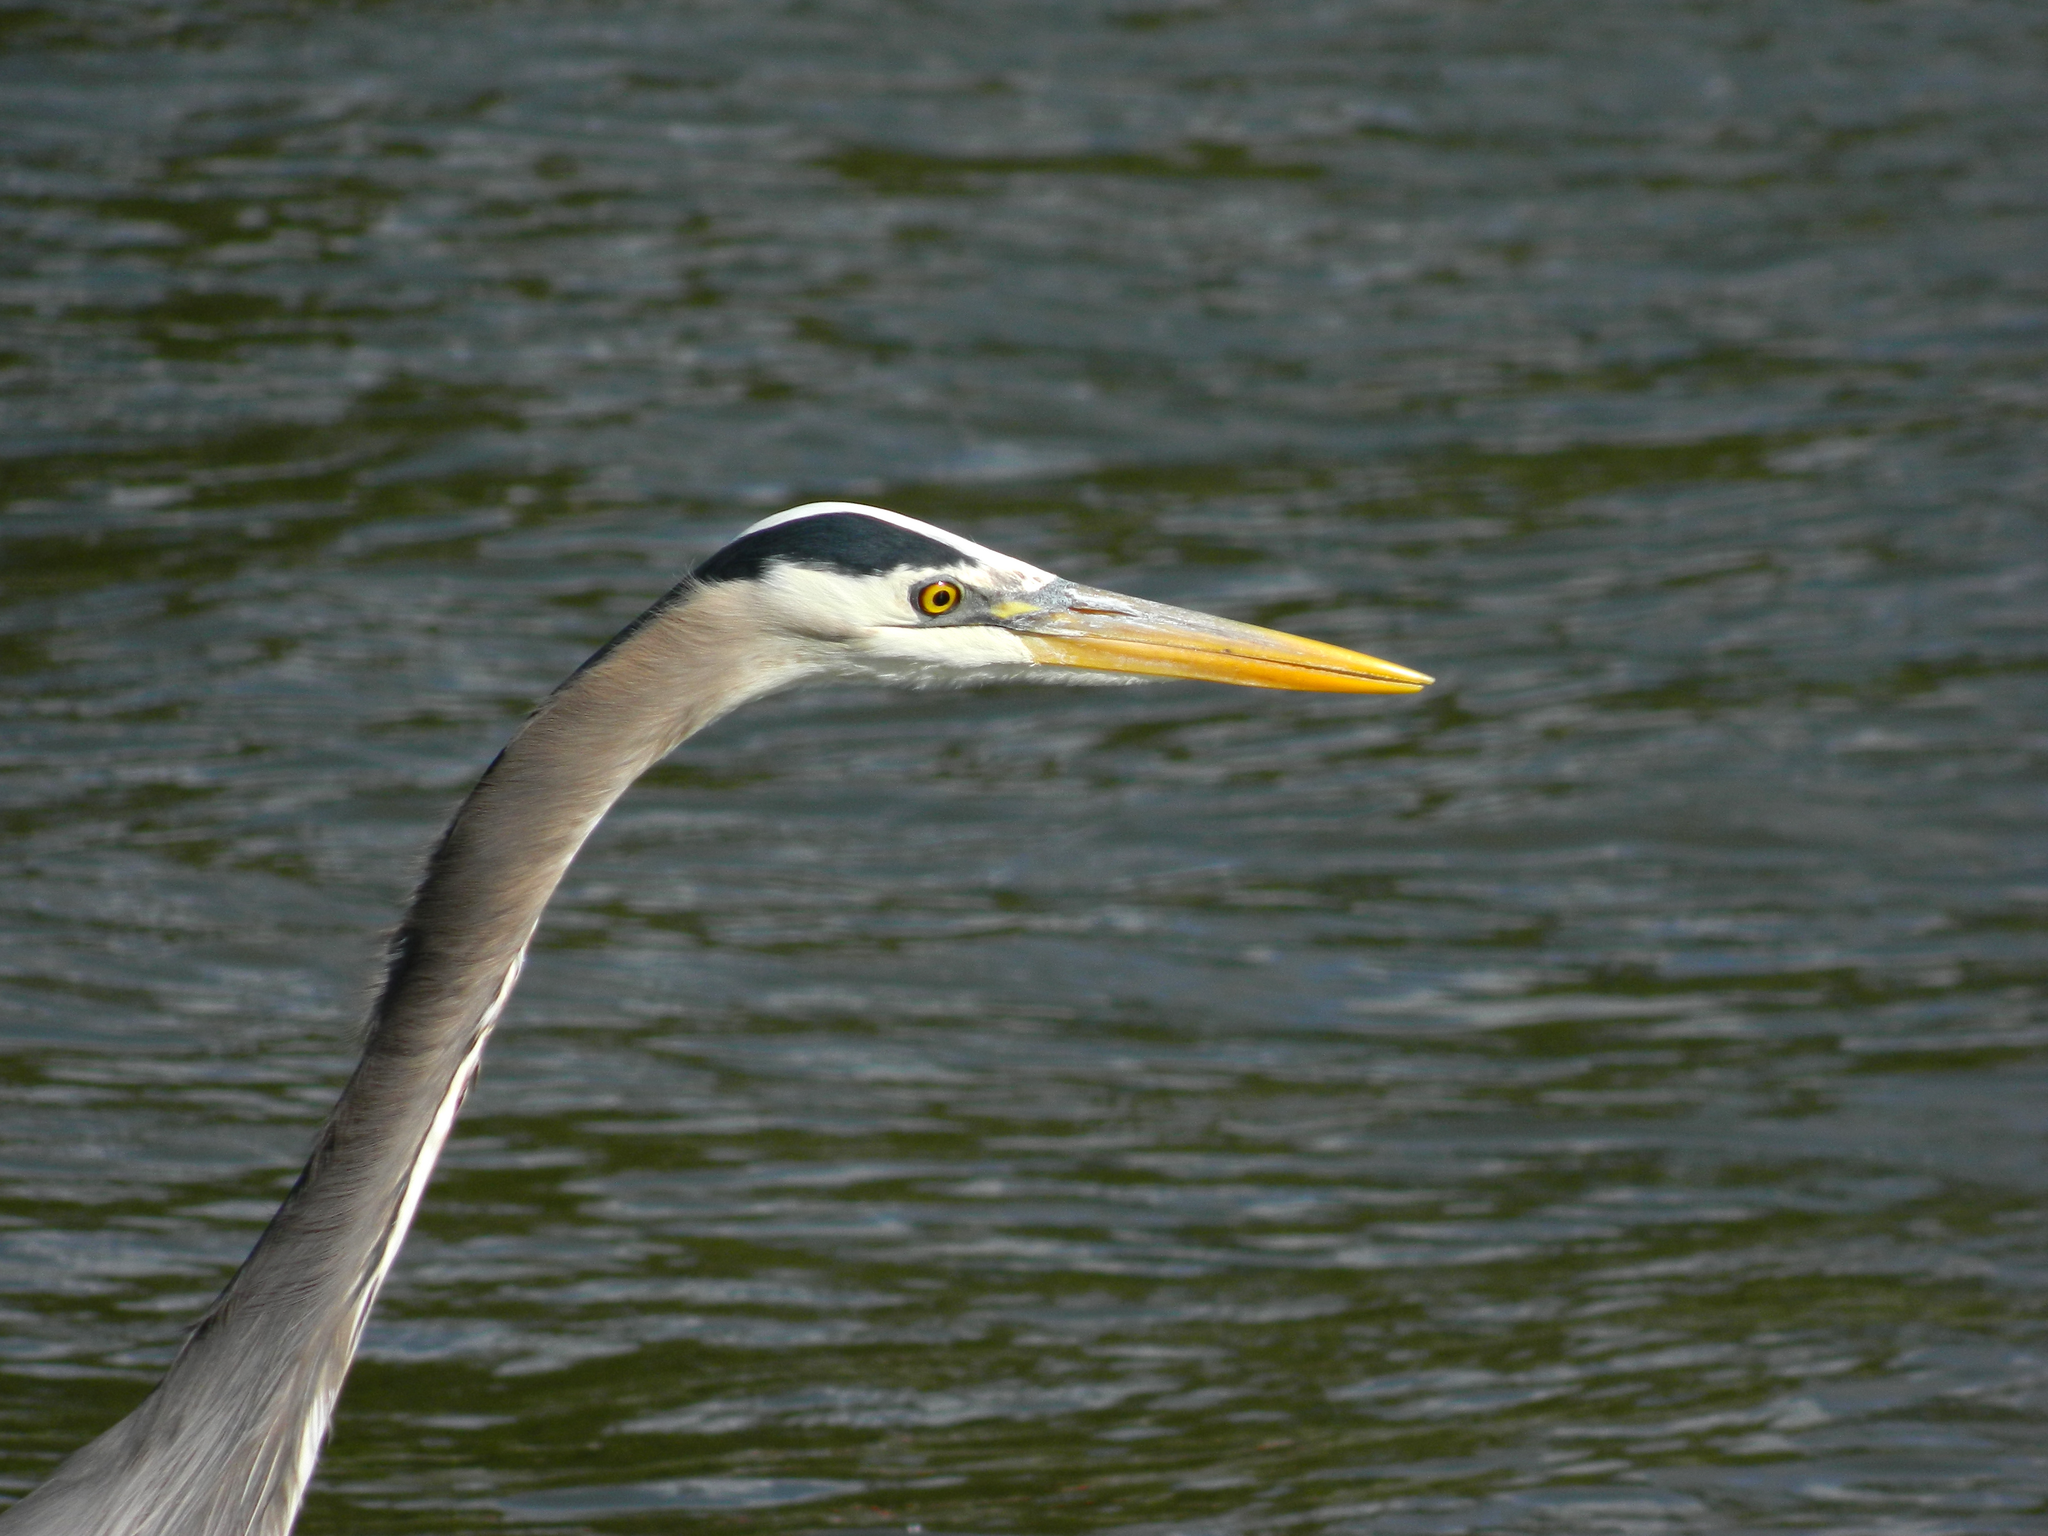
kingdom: Animalia
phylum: Chordata
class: Aves
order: Pelecaniformes
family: Ardeidae
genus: Ardea
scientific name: Ardea herodias
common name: Great blue heron
